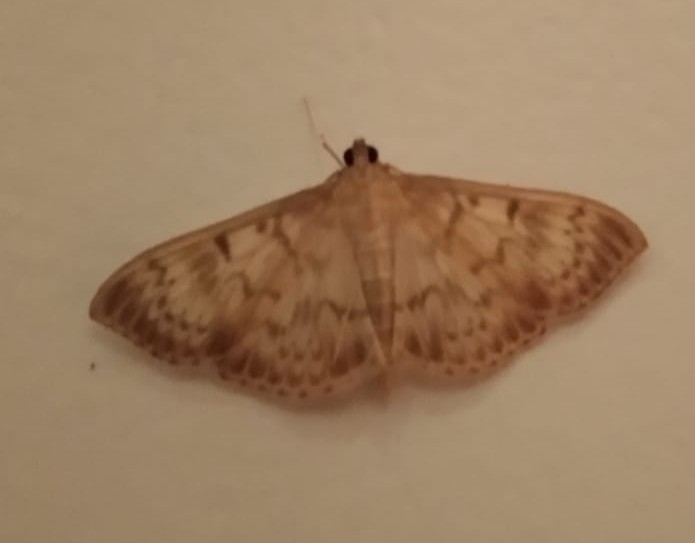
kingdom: Animalia
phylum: Arthropoda
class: Insecta
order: Lepidoptera
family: Crambidae
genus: Patania
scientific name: Patania ruralis
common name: Mother of pearl
